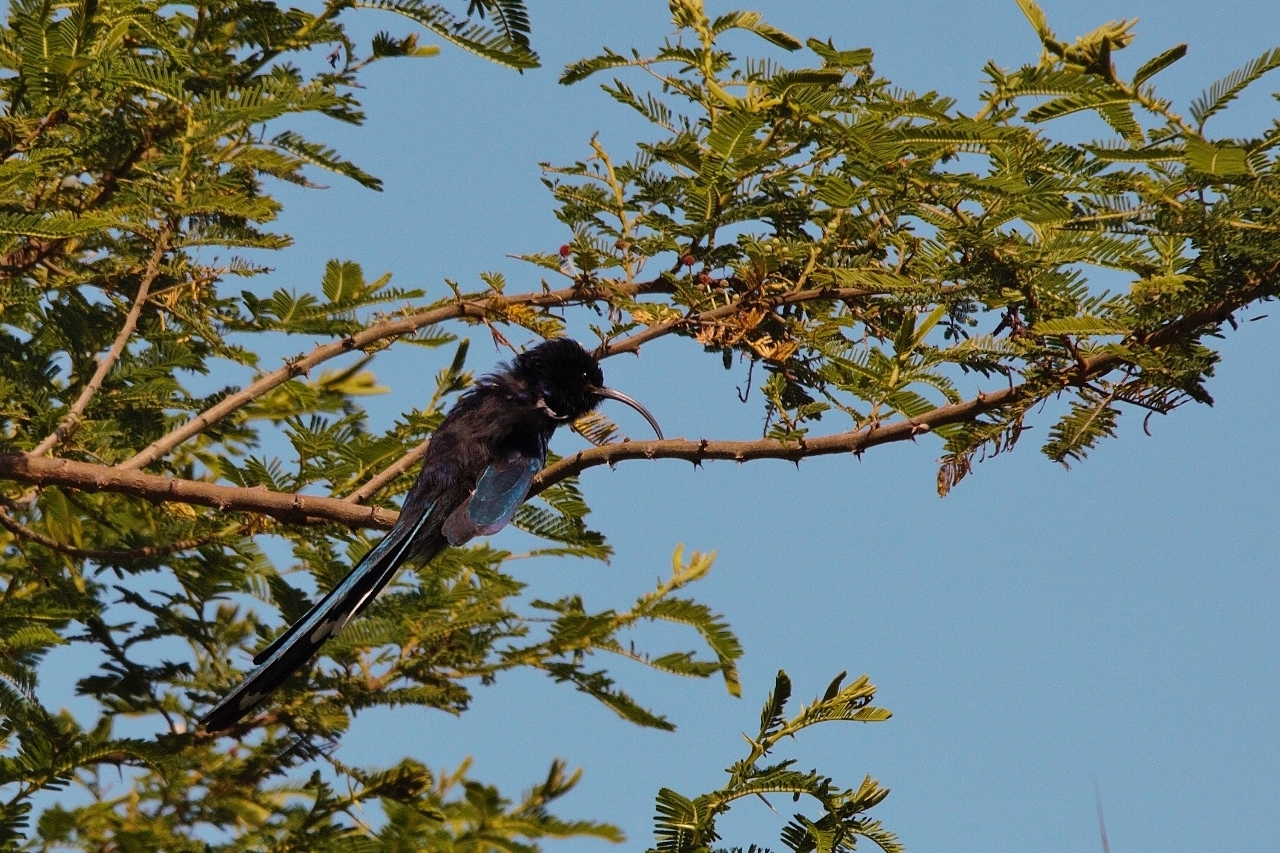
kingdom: Animalia
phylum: Chordata
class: Aves
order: Bucerotiformes
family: Phoeniculidae
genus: Rhinopomastus
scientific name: Rhinopomastus cyanomelas
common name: Common scimitarbill
